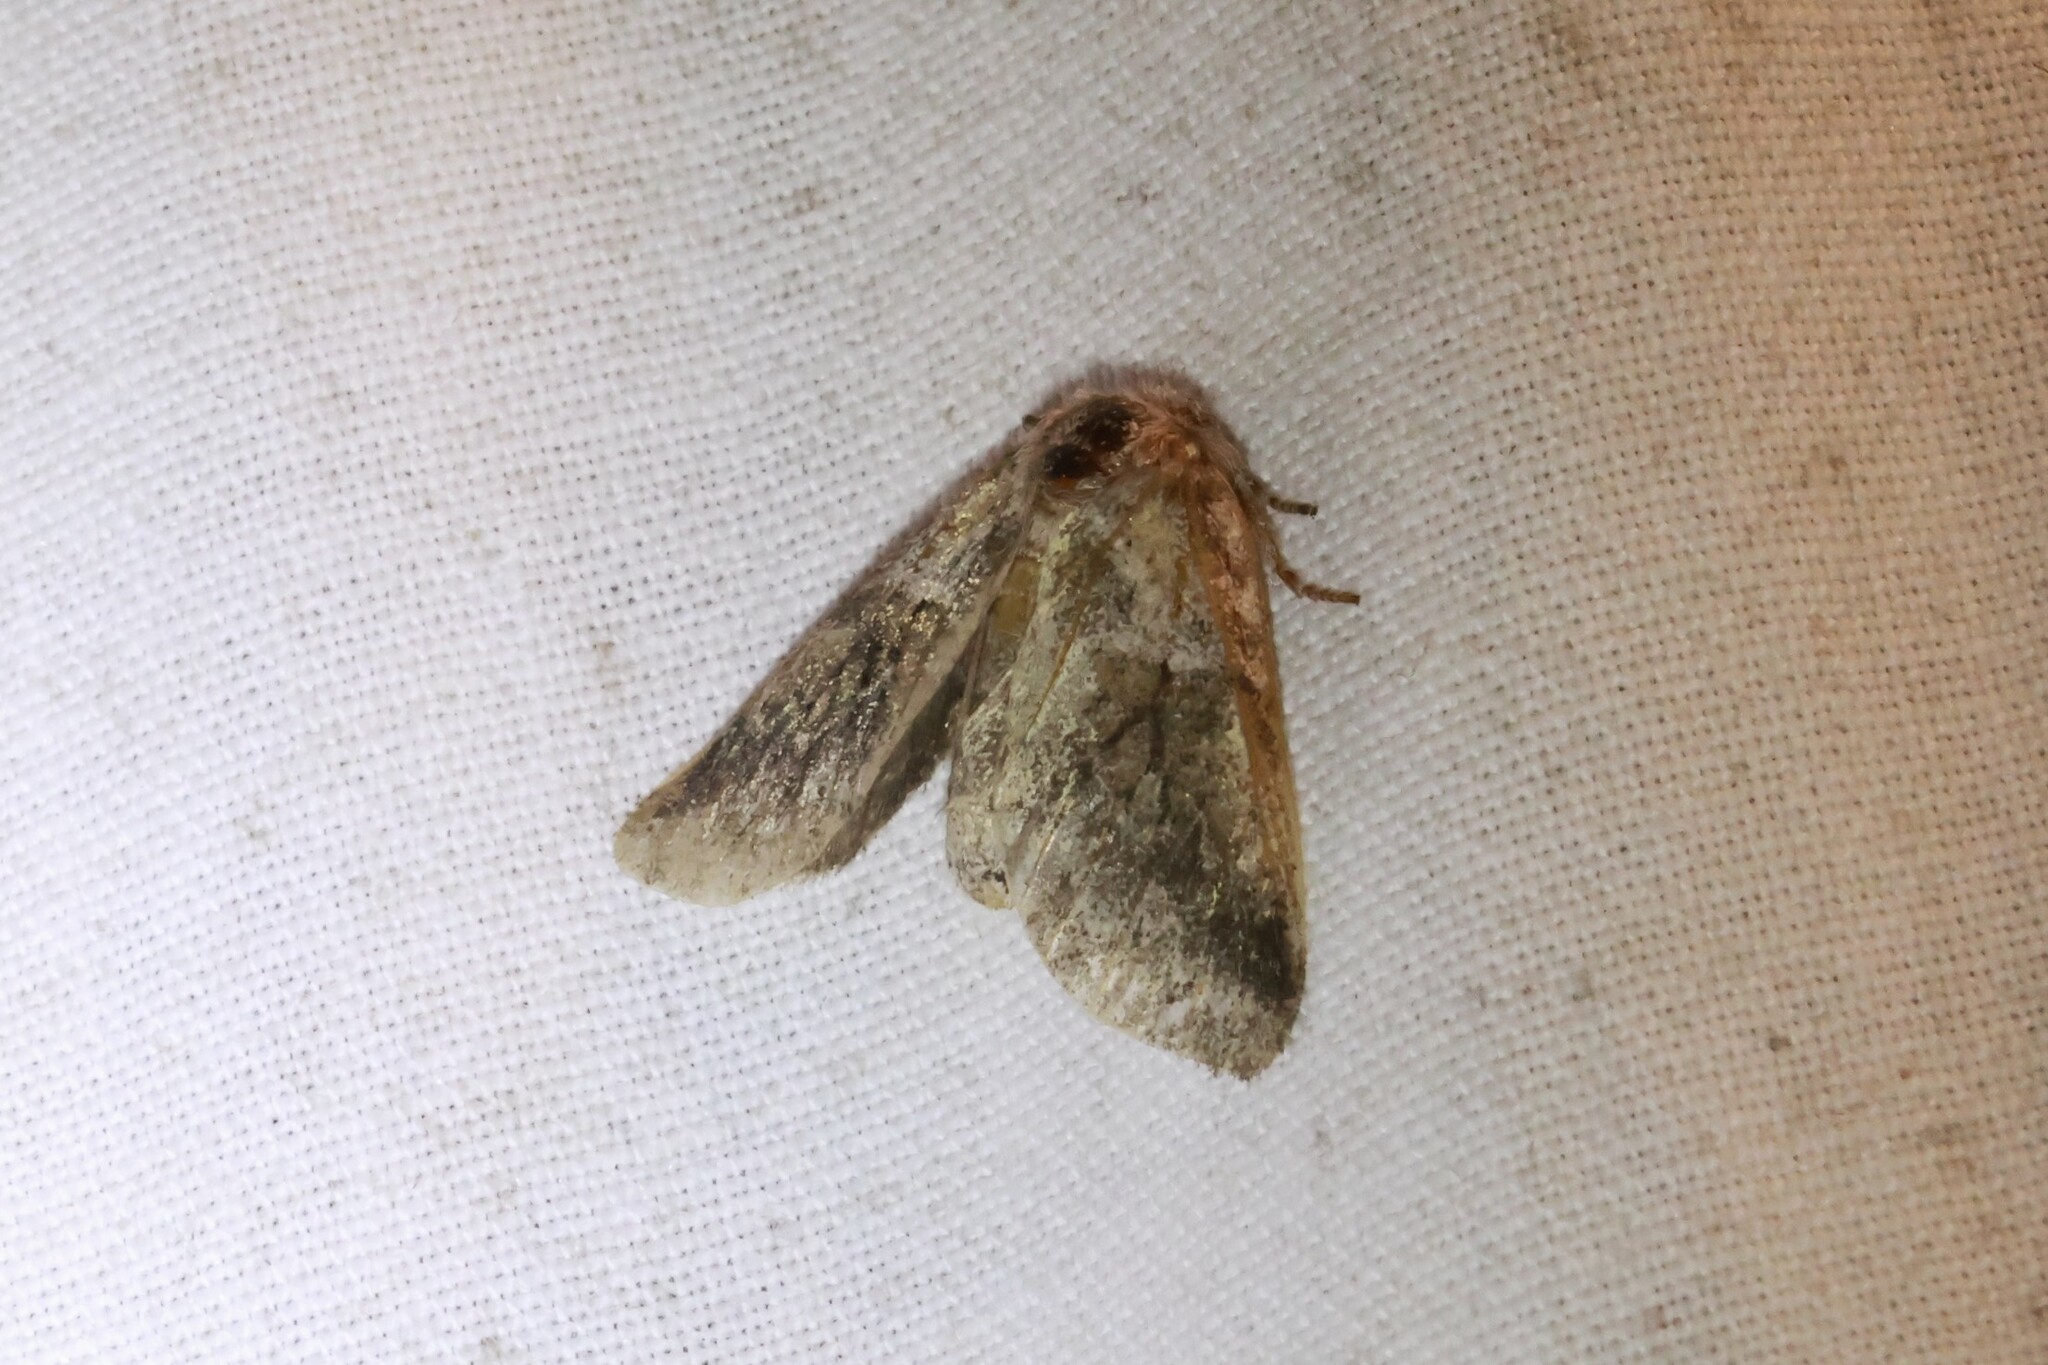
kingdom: Animalia
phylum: Arthropoda
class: Insecta
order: Lepidoptera
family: Notodontidae
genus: Gluphisia
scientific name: Gluphisia septentrionis
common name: Common gluphisia
